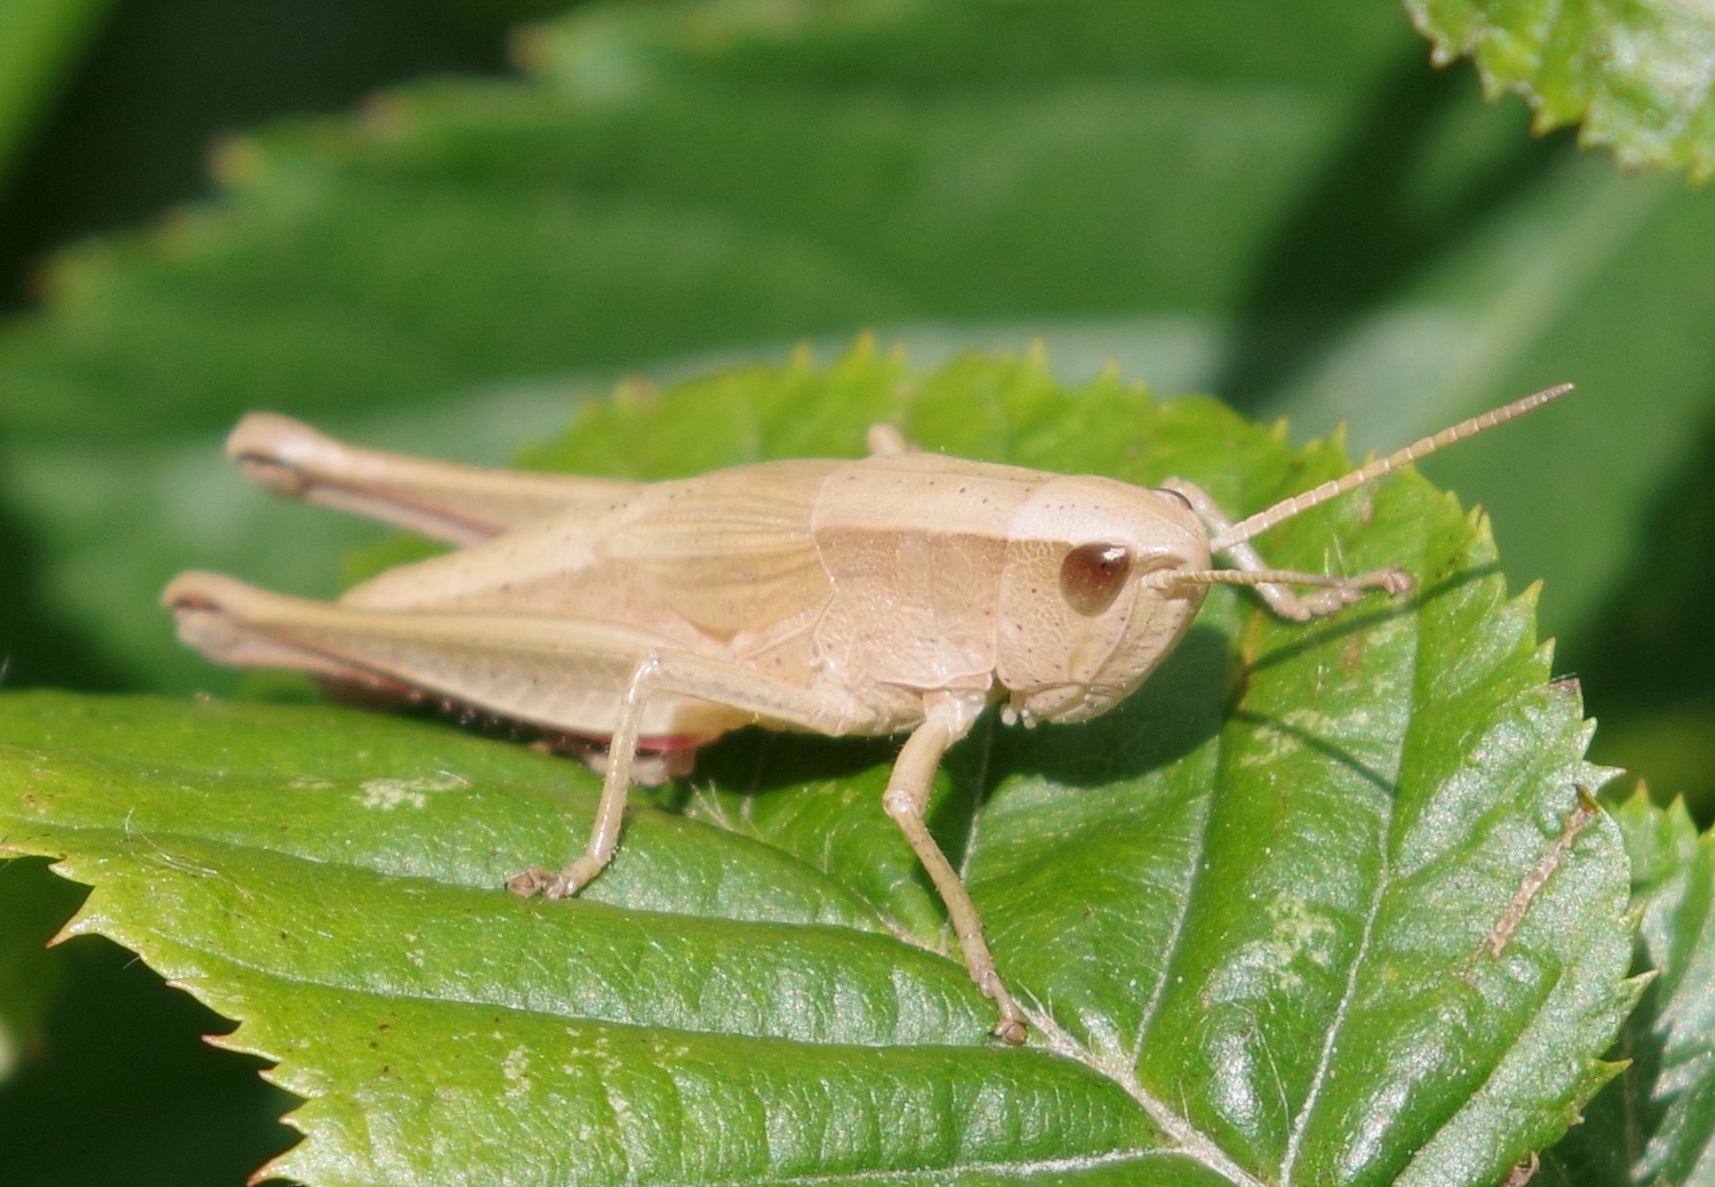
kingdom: Animalia
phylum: Arthropoda
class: Insecta
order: Orthoptera
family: Acrididae
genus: Chrysochraon
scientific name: Chrysochraon dispar
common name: Large gold grasshopper
